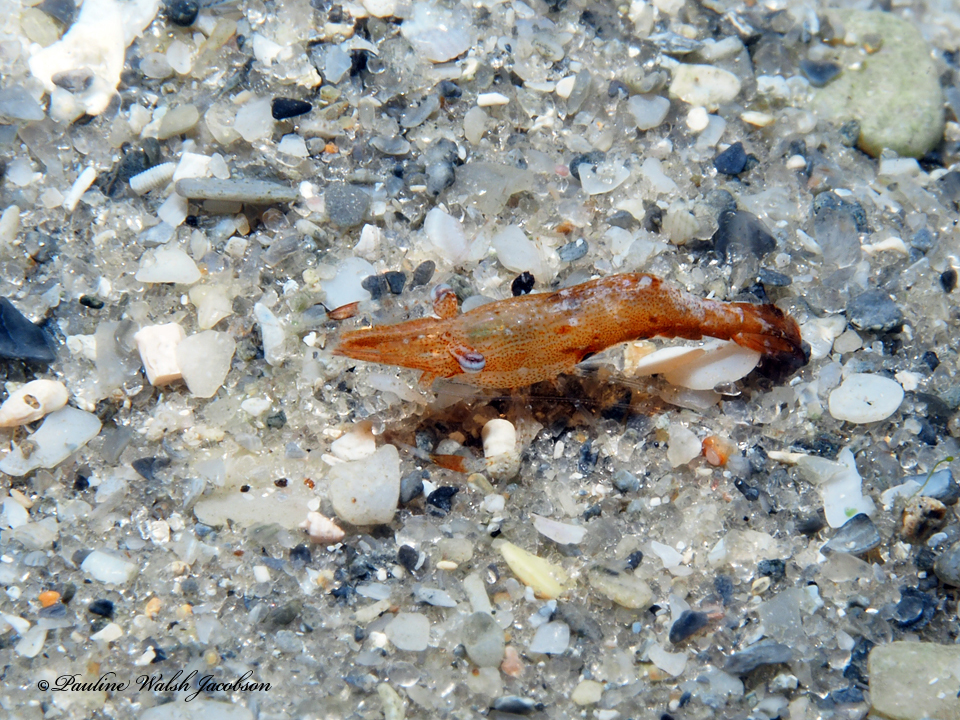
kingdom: Animalia
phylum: Arthropoda
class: Malacostraca
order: Decapoda
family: Palaemonidae
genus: Leander
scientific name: Leander tenuicornis
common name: Brown glass shrimp
